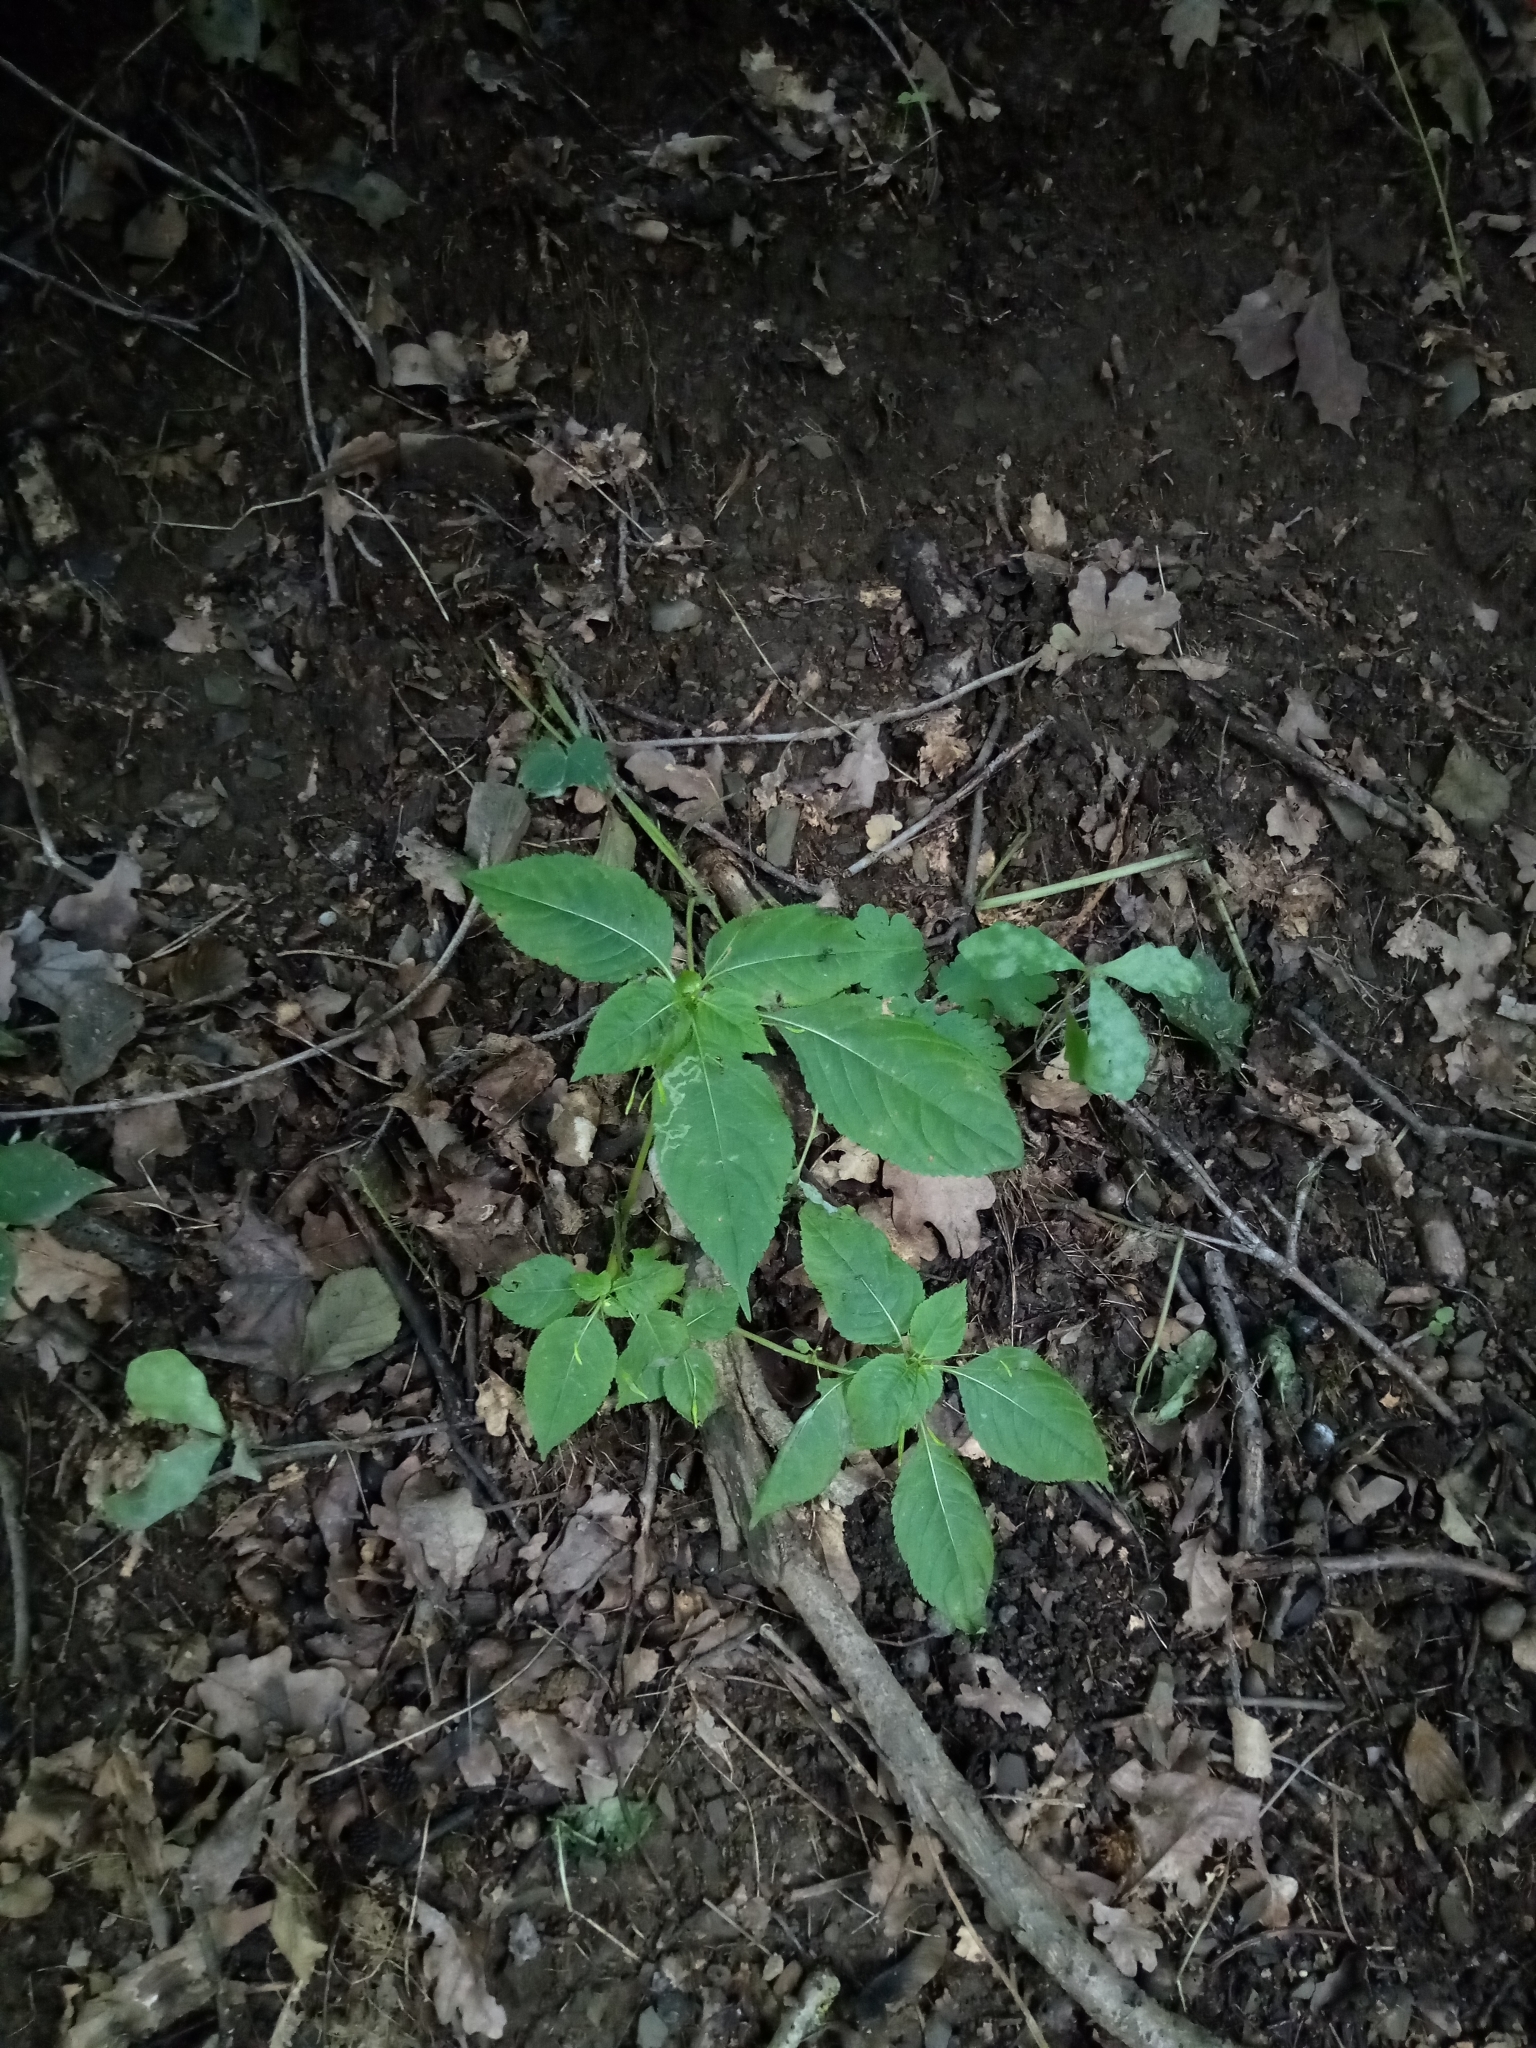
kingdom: Plantae
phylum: Tracheophyta
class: Magnoliopsida
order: Ericales
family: Balsaminaceae
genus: Impatiens
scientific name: Impatiens parviflora
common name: Small balsam
